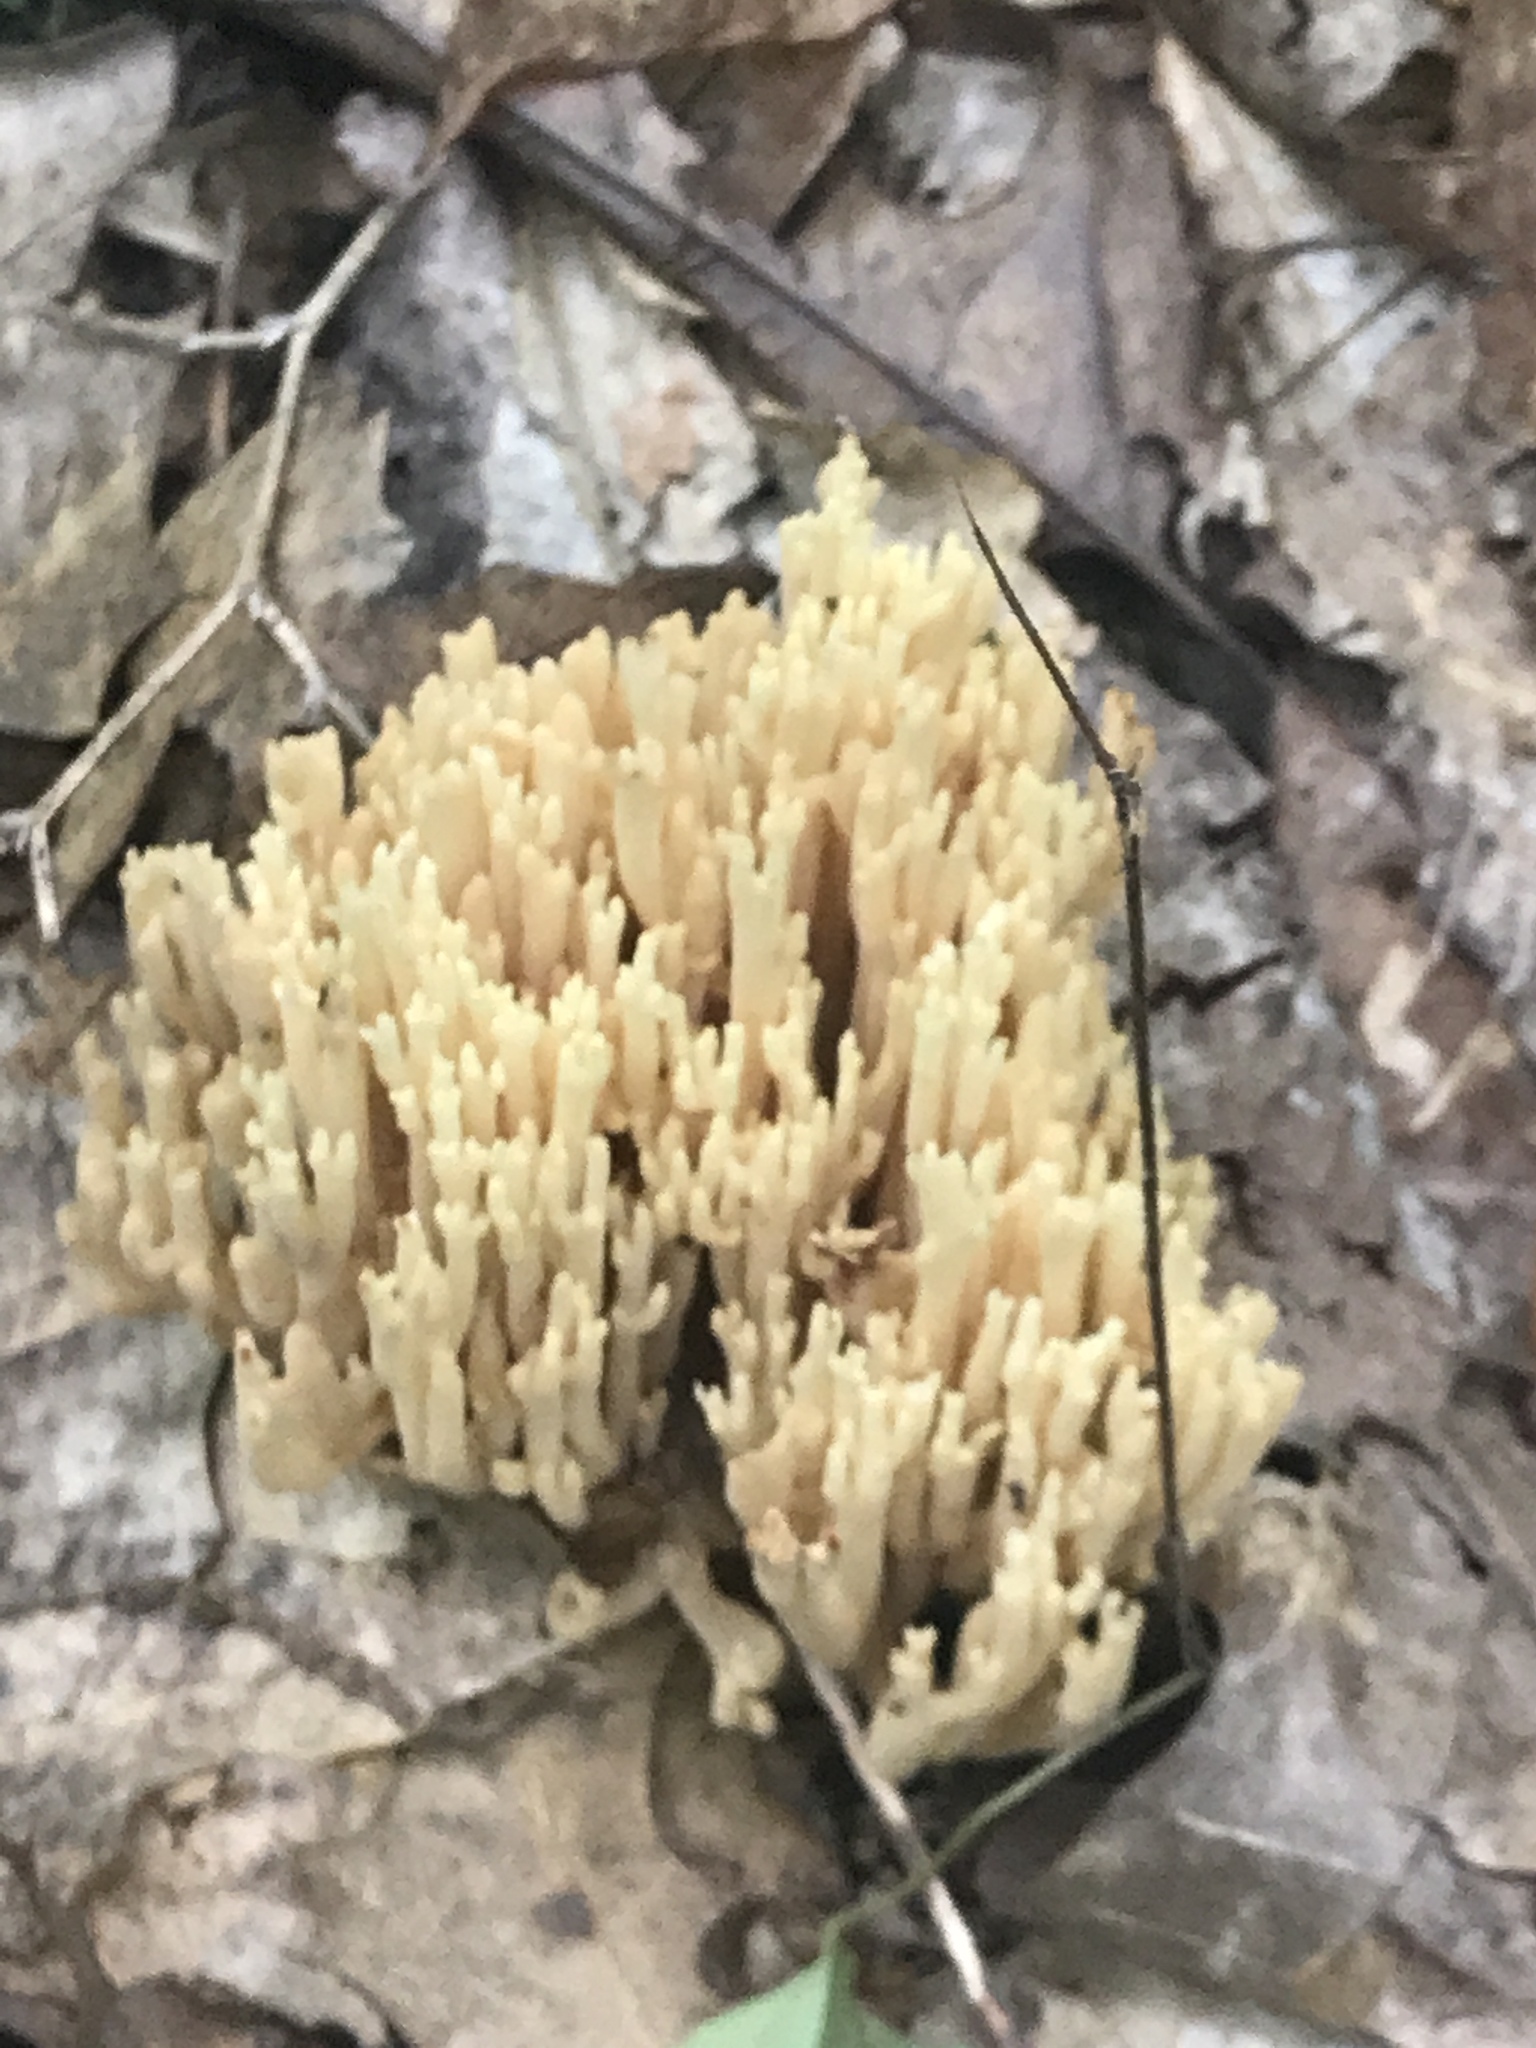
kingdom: Fungi
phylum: Basidiomycota
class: Agaricomycetes
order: Russulales
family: Auriscalpiaceae
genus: Artomyces
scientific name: Artomyces pyxidatus
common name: Crown-tipped coral fungus
